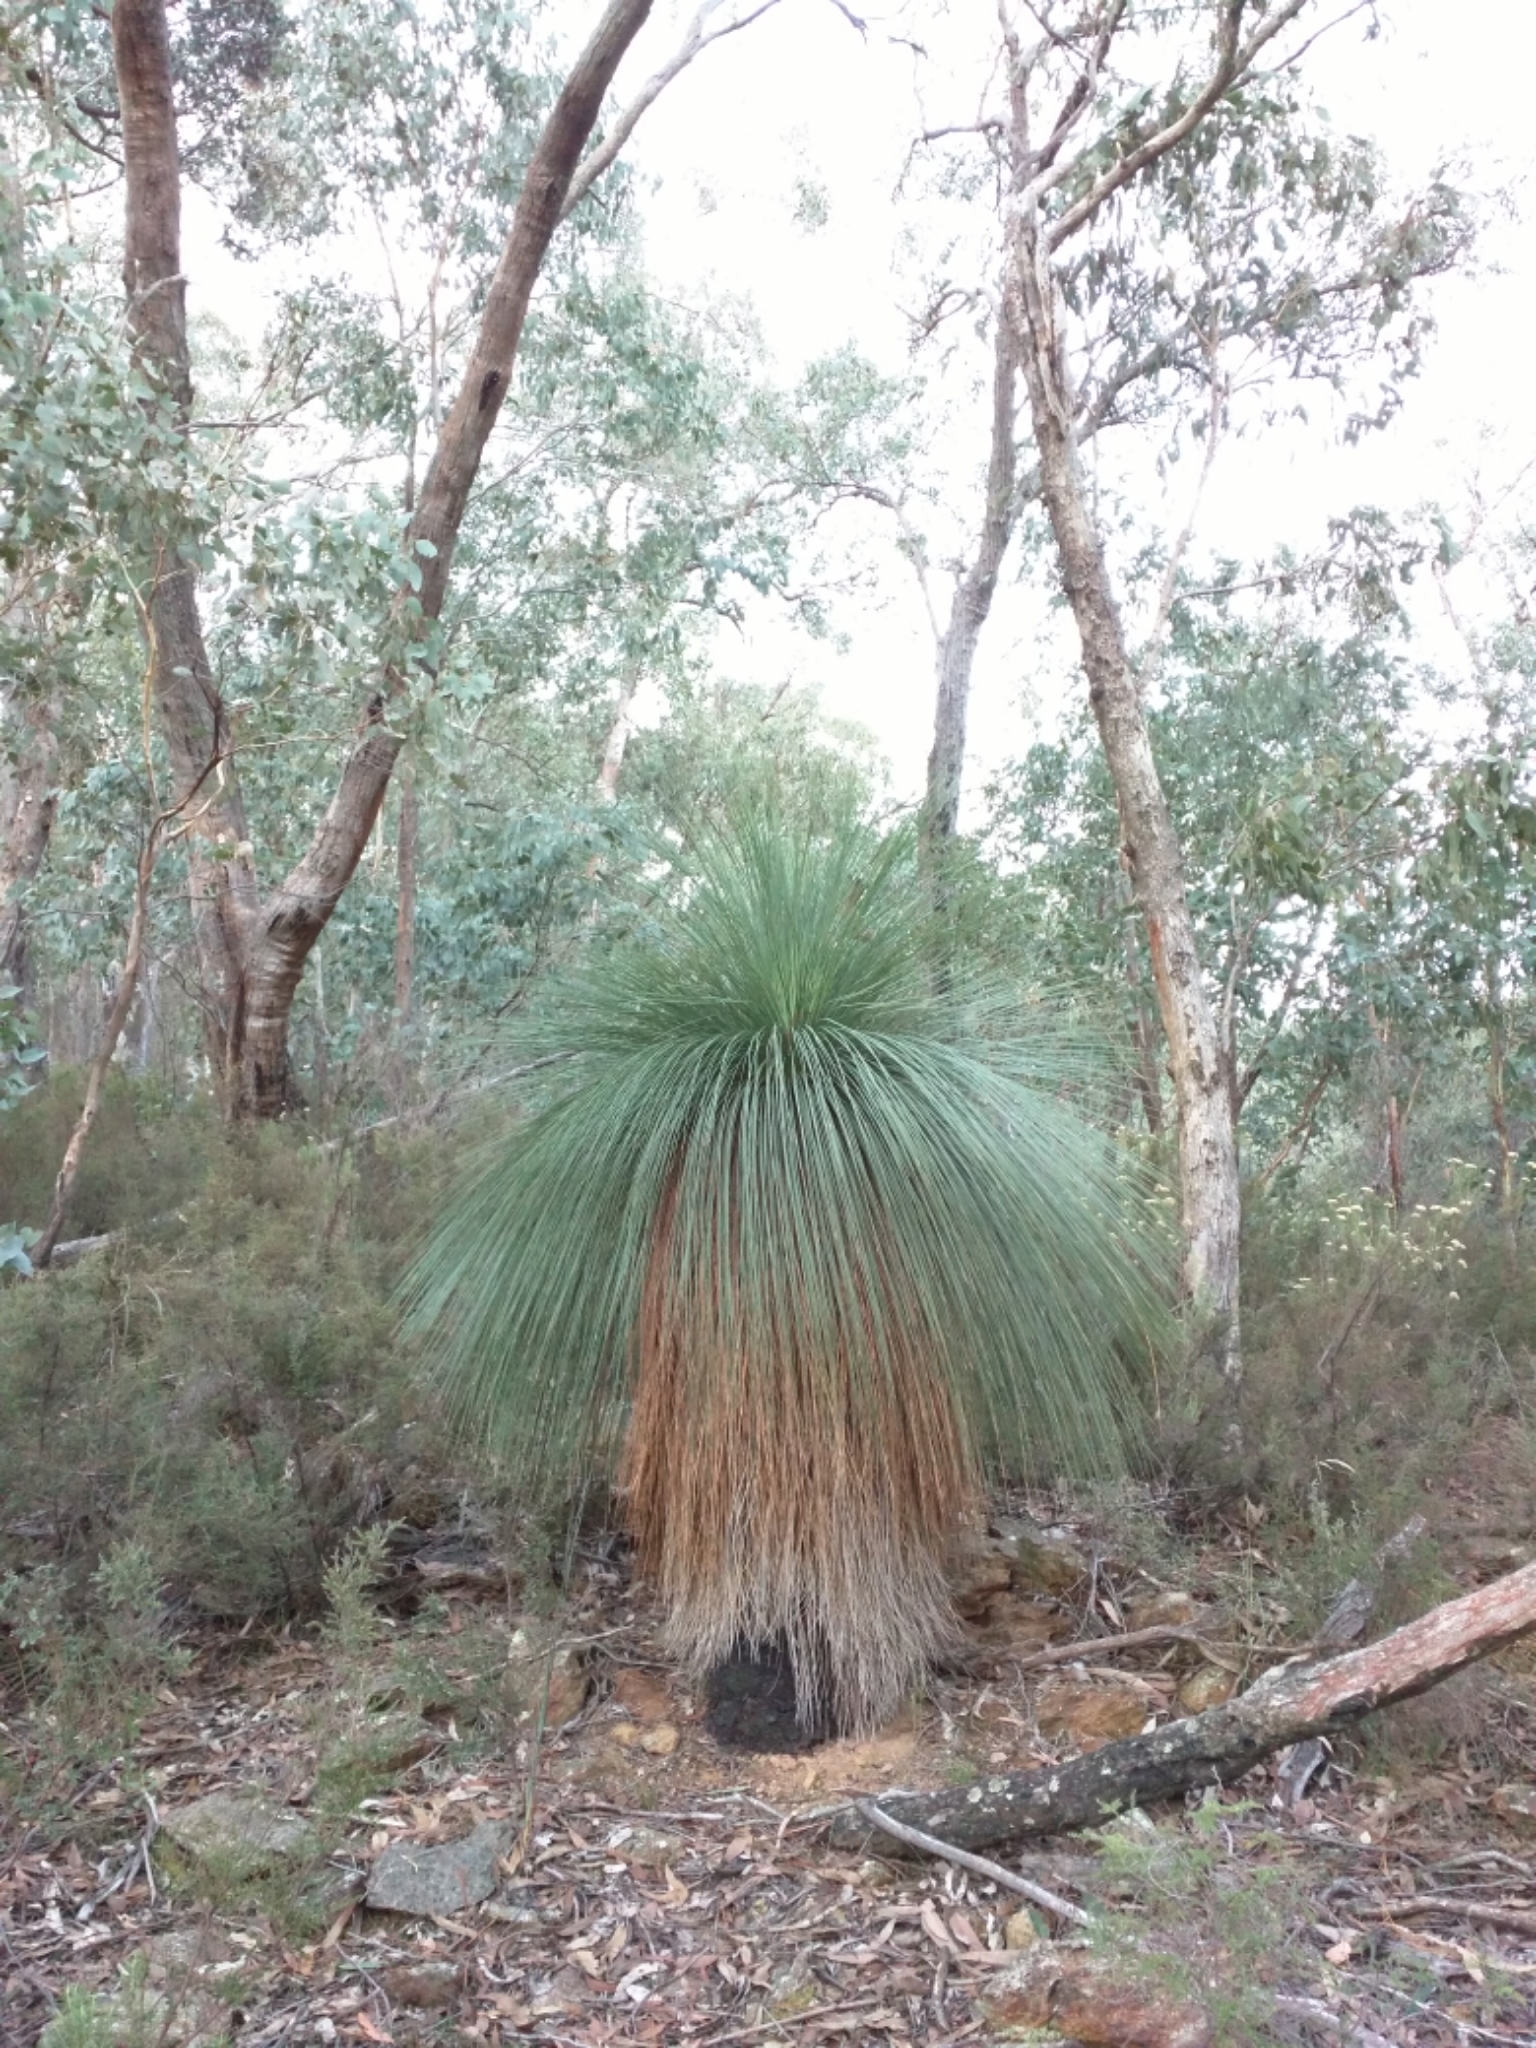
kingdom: Plantae
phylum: Tracheophyta
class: Liliopsida
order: Asparagales
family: Asphodelaceae
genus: Xanthorrhoea
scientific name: Xanthorrhoea glauca
